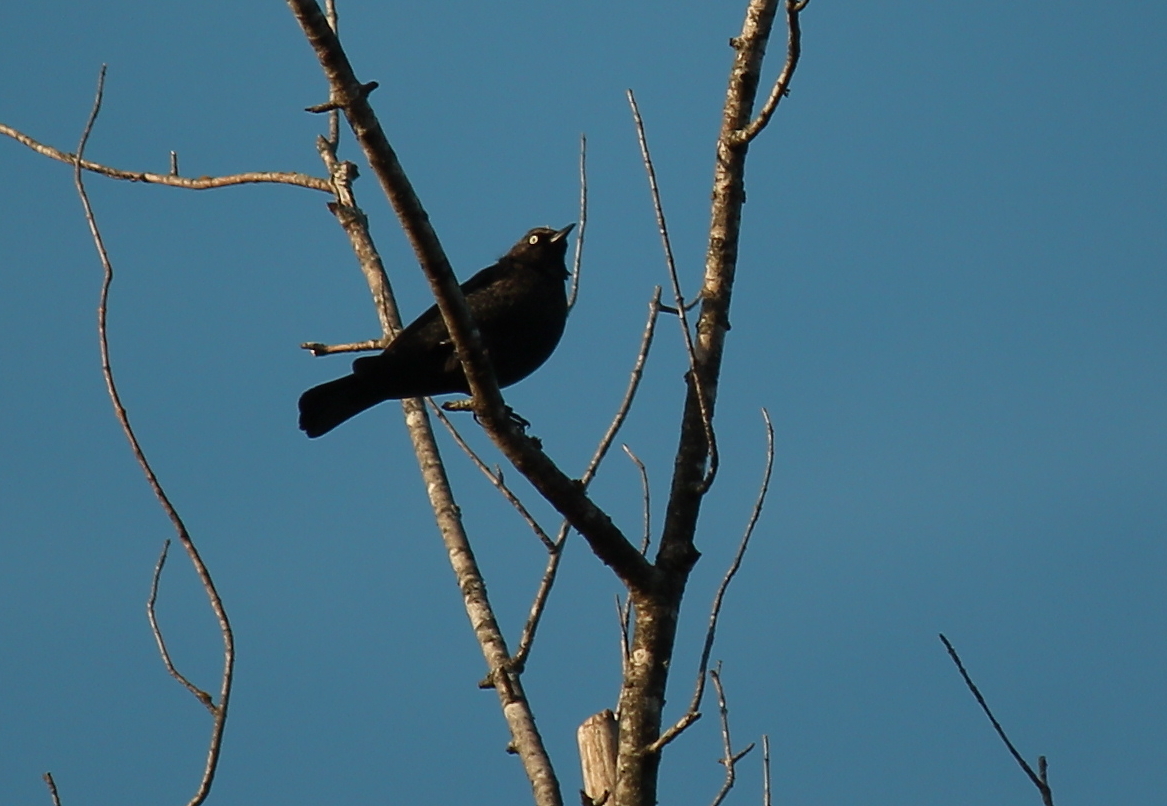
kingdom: Animalia
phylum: Chordata
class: Aves
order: Passeriformes
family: Icteridae
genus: Euphagus
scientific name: Euphagus cyanocephalus
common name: Brewer's blackbird
